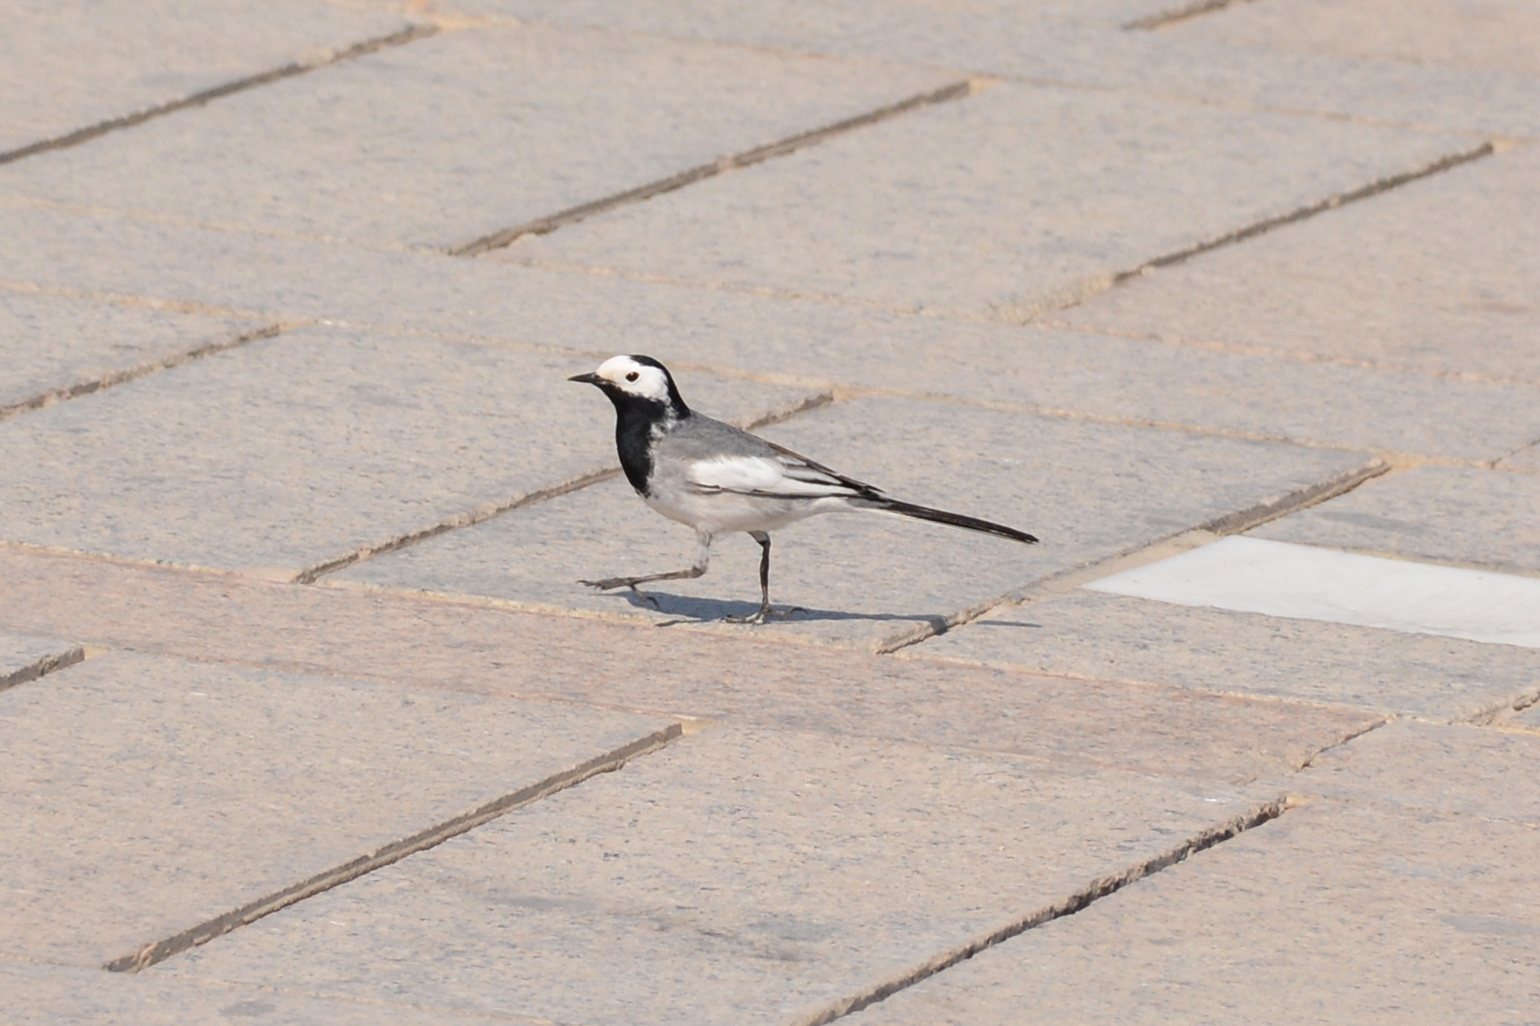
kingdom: Animalia
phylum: Chordata
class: Aves
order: Passeriformes
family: Motacillidae
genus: Motacilla
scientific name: Motacilla alba
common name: White wagtail
